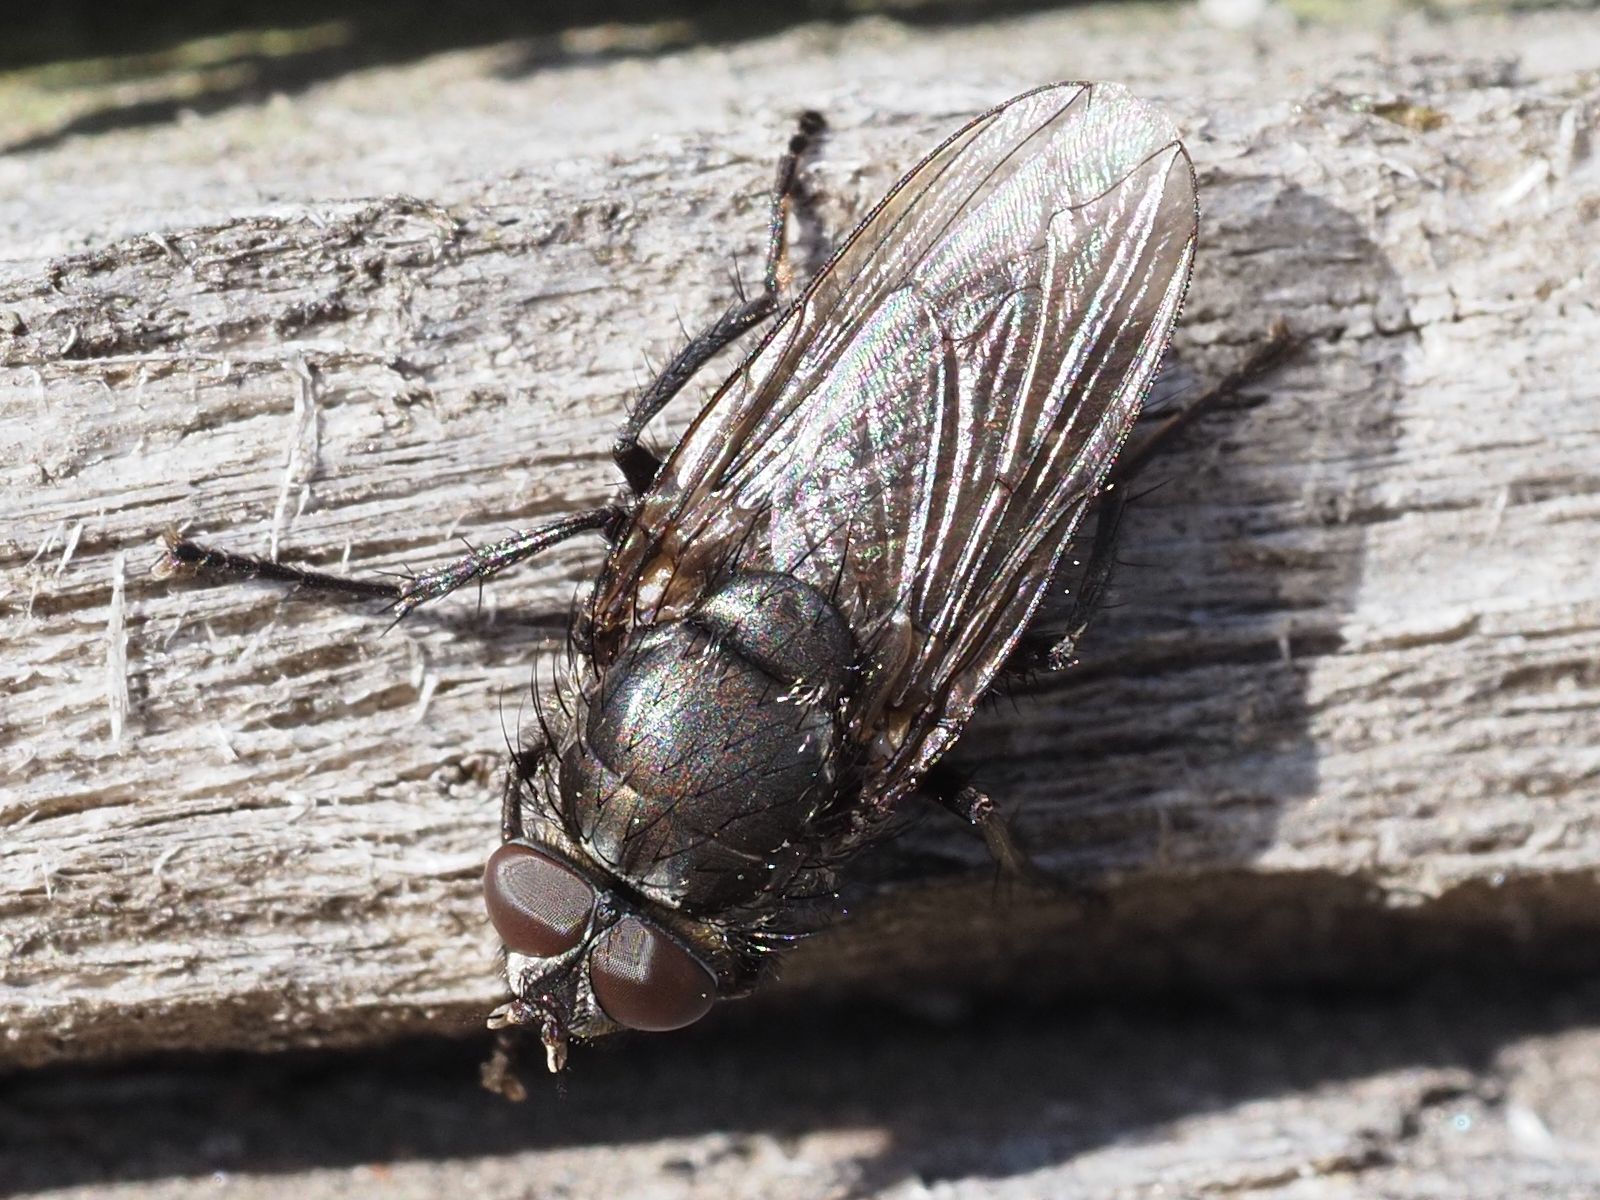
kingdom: Animalia
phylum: Arthropoda
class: Insecta
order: Diptera
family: Polleniidae
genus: Pollenia
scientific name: Pollenia vagabunda
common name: Vagabund cluster fly
